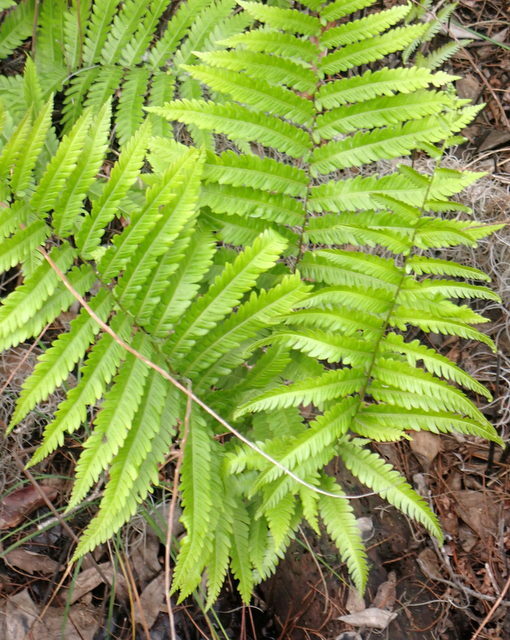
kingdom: Plantae
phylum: Tracheophyta
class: Polypodiopsida
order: Polypodiales
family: Blechnaceae
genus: Anchistea
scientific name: Anchistea virginica
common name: Virginia chain fern
